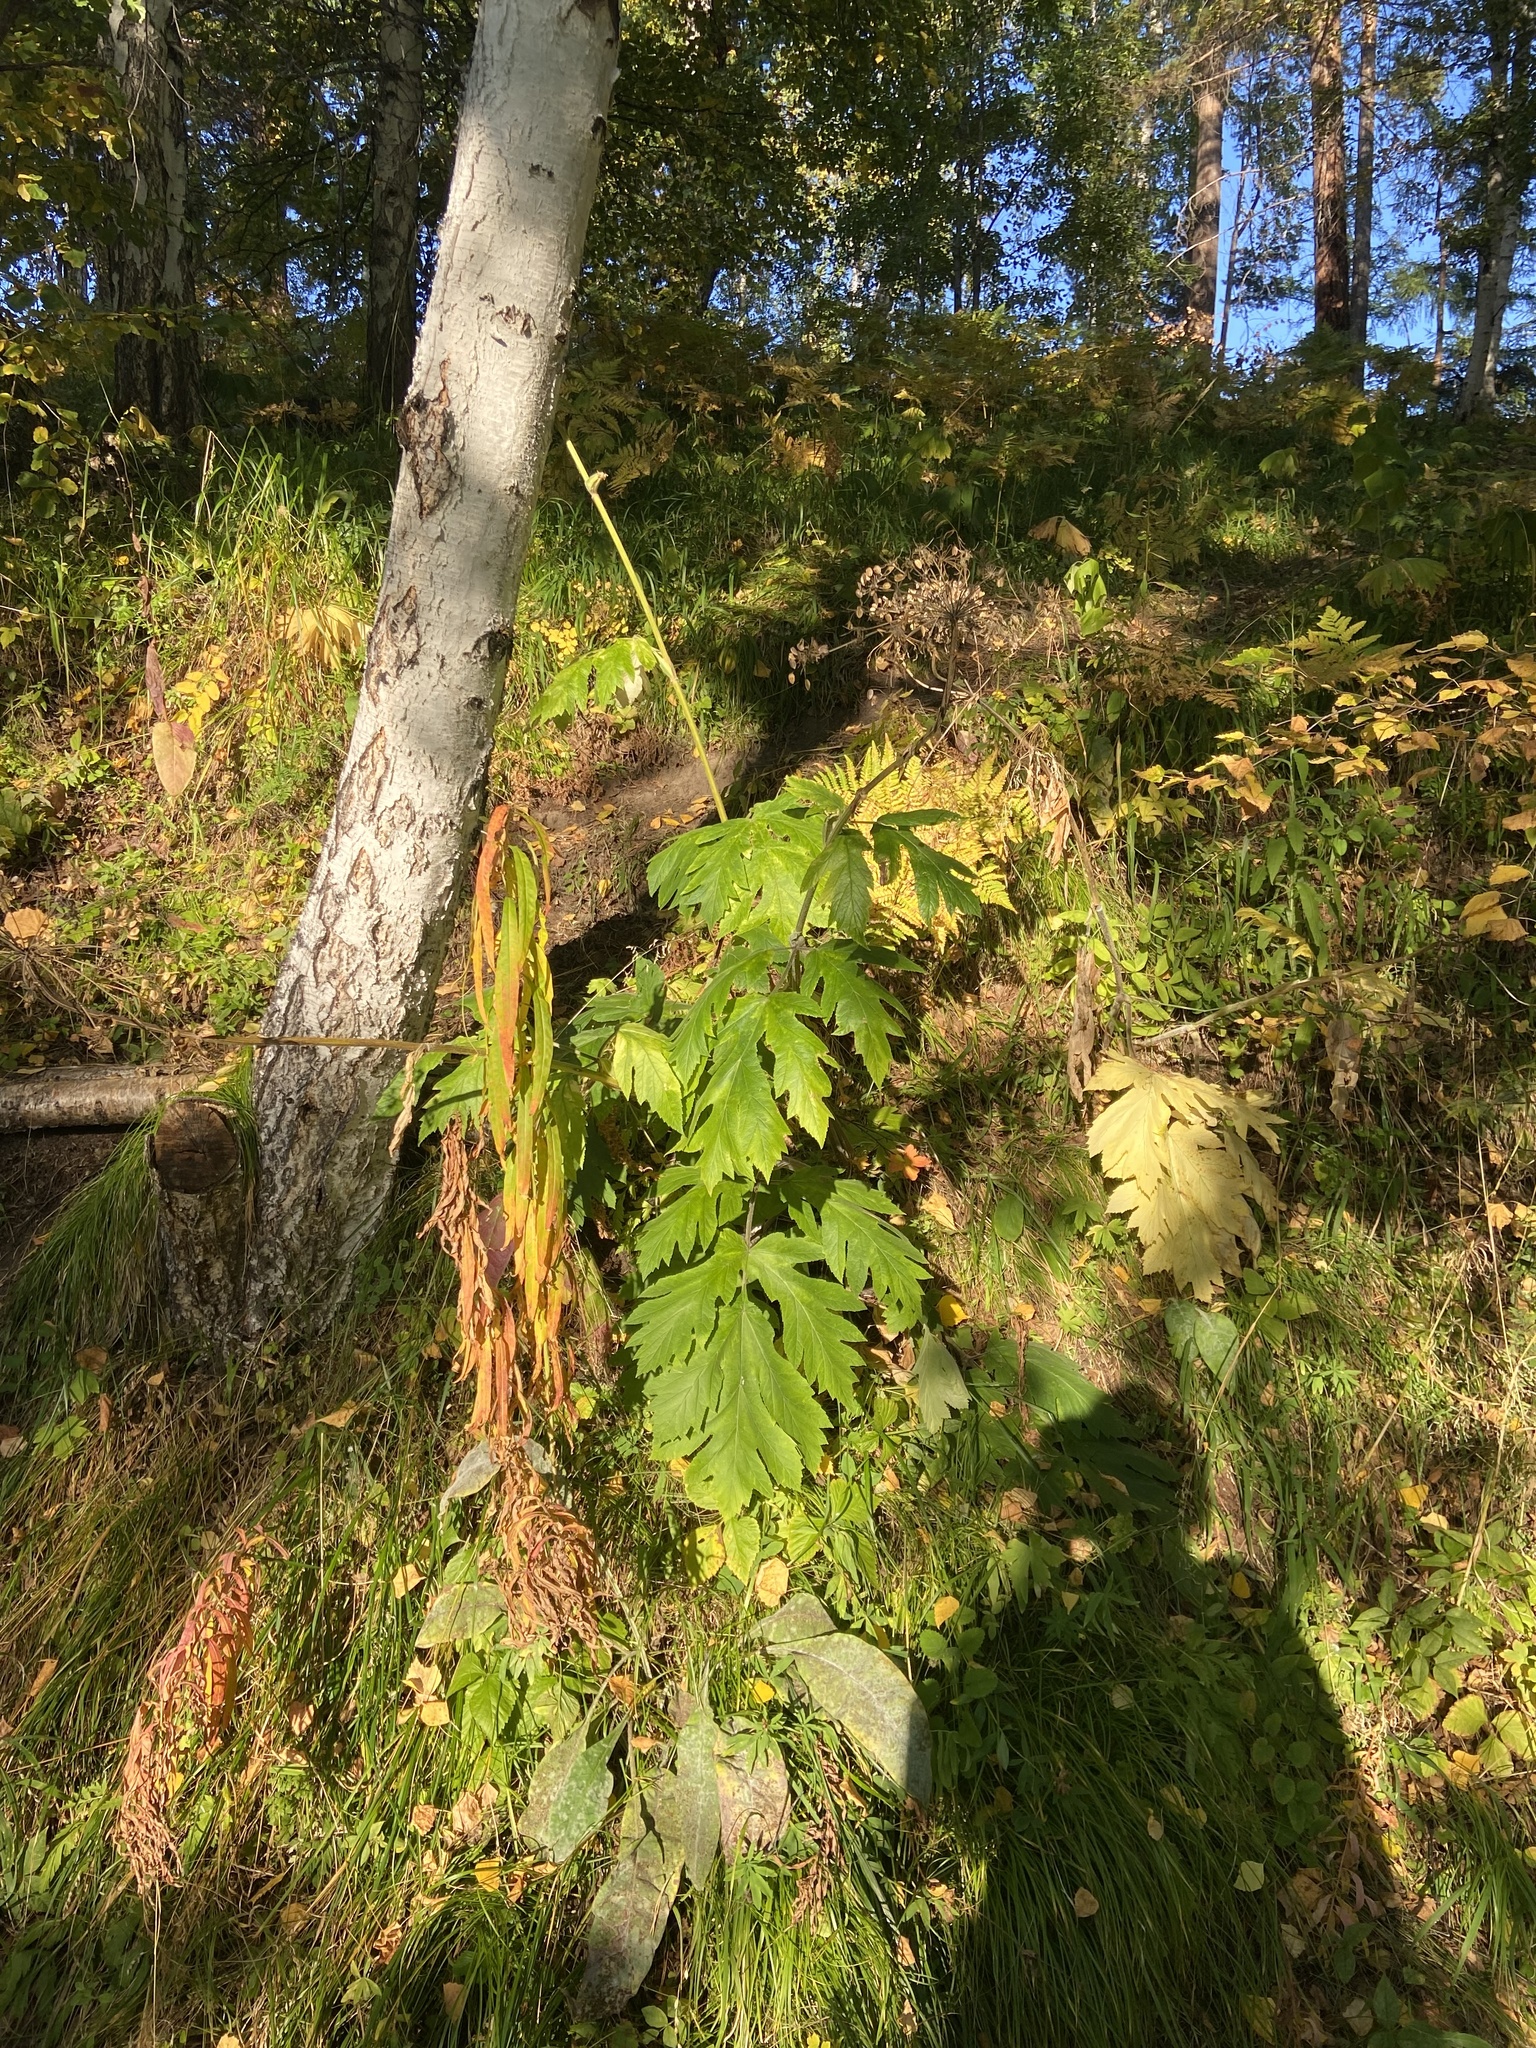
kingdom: Plantae
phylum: Tracheophyta
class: Magnoliopsida
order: Apiales
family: Apiaceae
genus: Heracleum
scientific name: Heracleum dissectum
